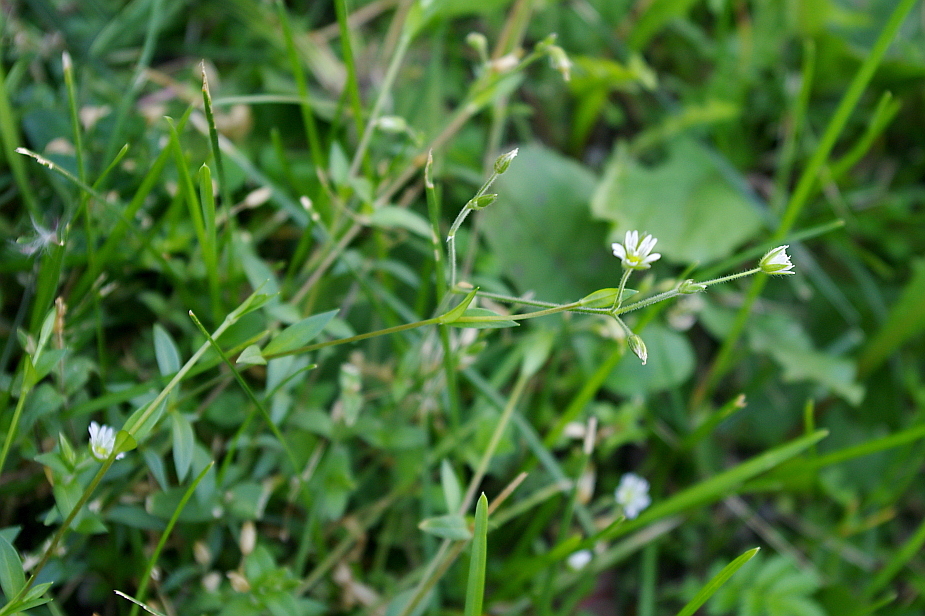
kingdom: Plantae
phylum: Tracheophyta
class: Magnoliopsida
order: Caryophyllales
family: Caryophyllaceae
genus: Cerastium
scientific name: Cerastium holosteoides
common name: Big chickweed
